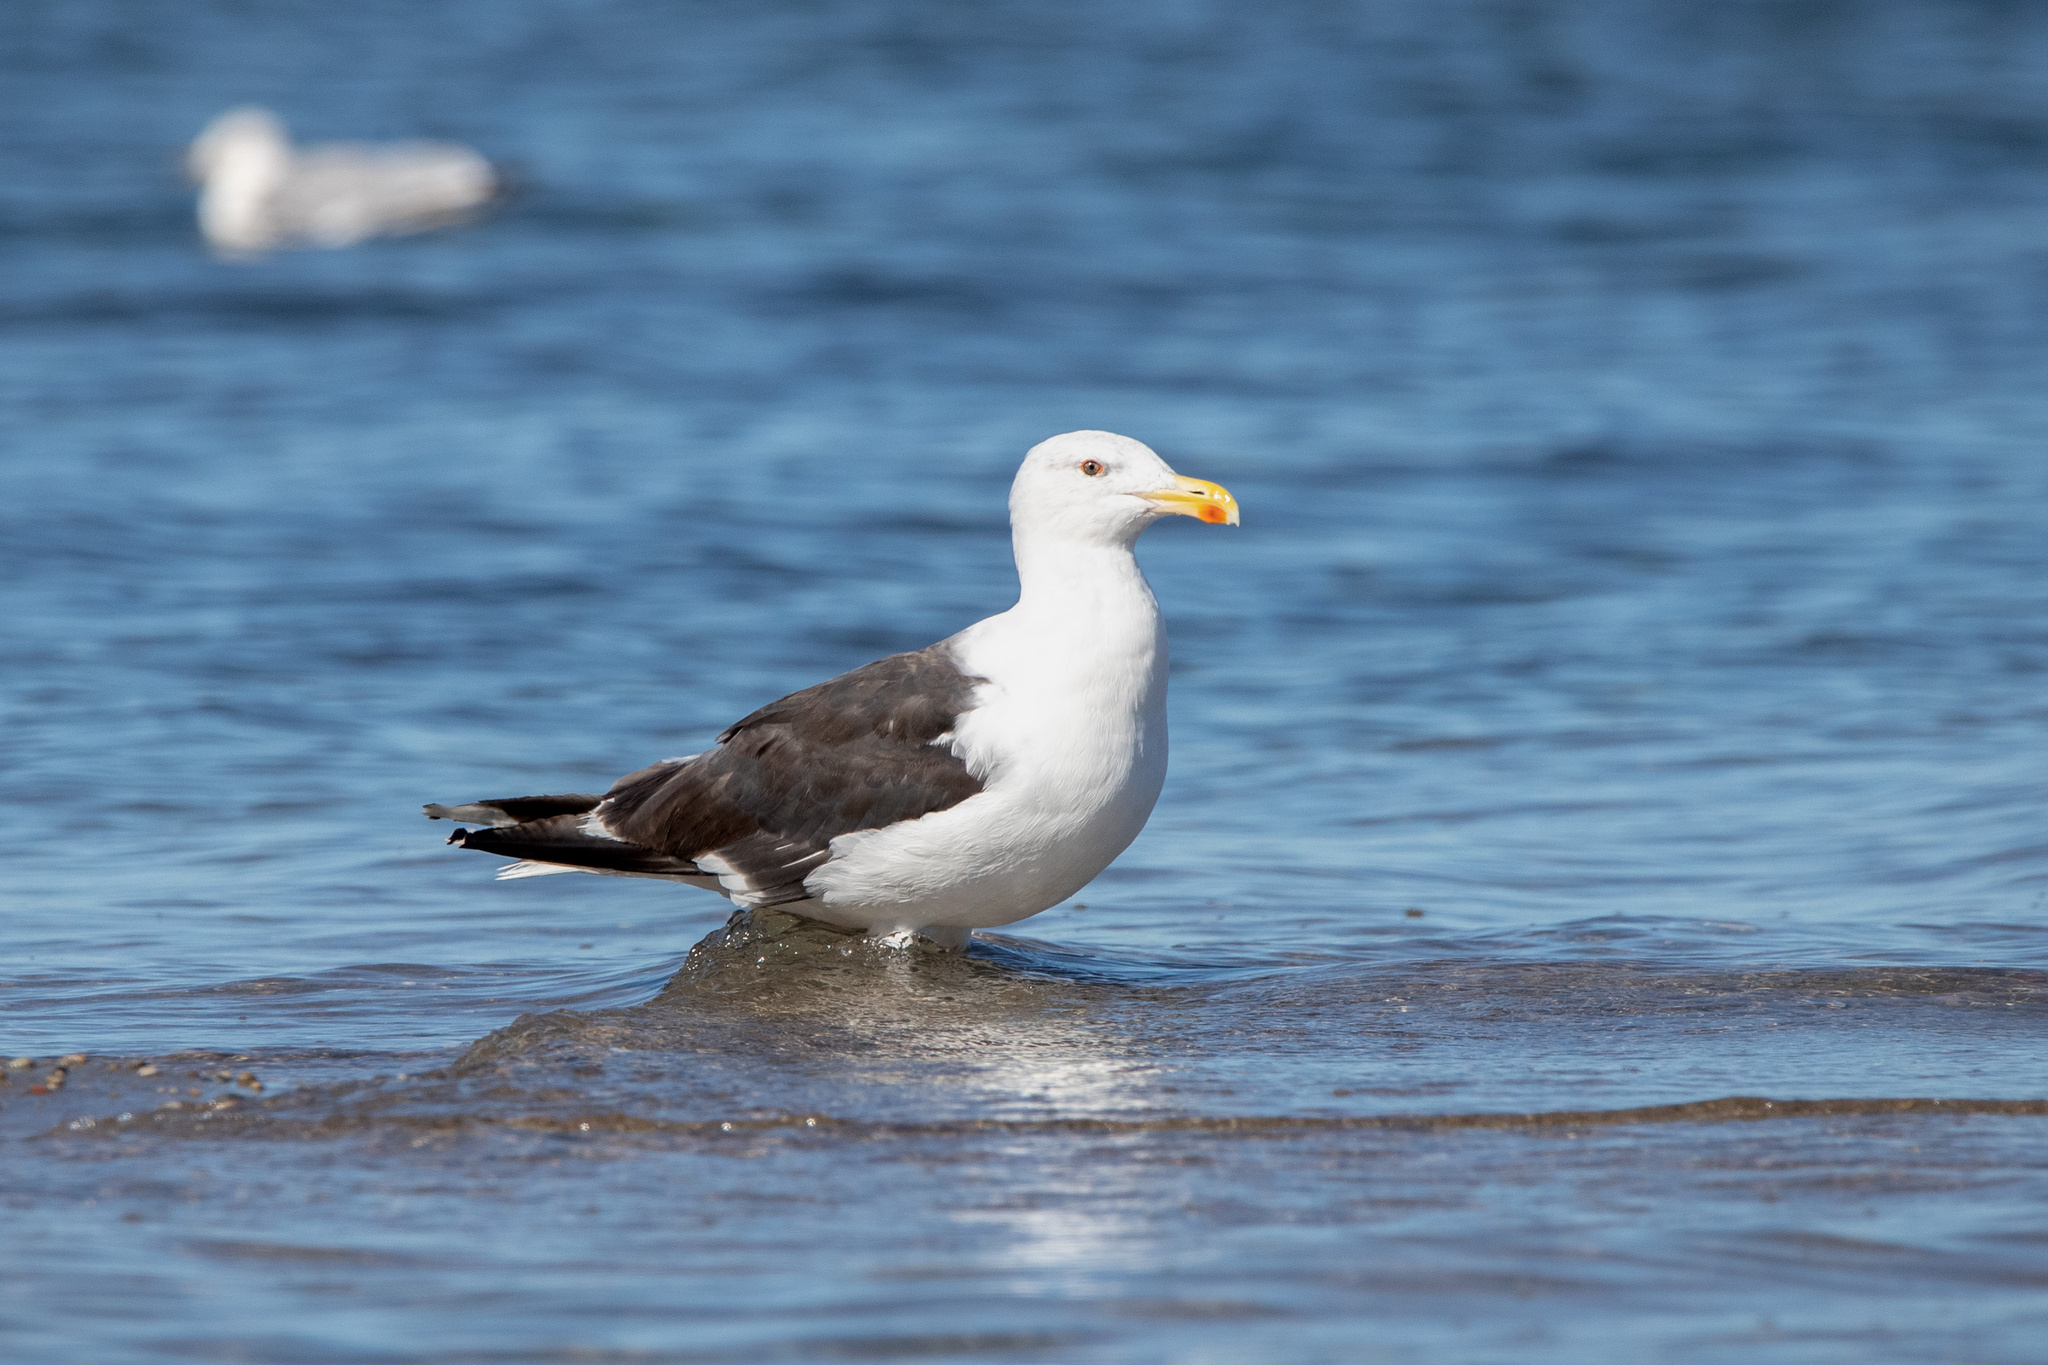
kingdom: Animalia
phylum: Chordata
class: Aves
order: Charadriiformes
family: Laridae
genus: Larus
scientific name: Larus marinus
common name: Great black-backed gull
